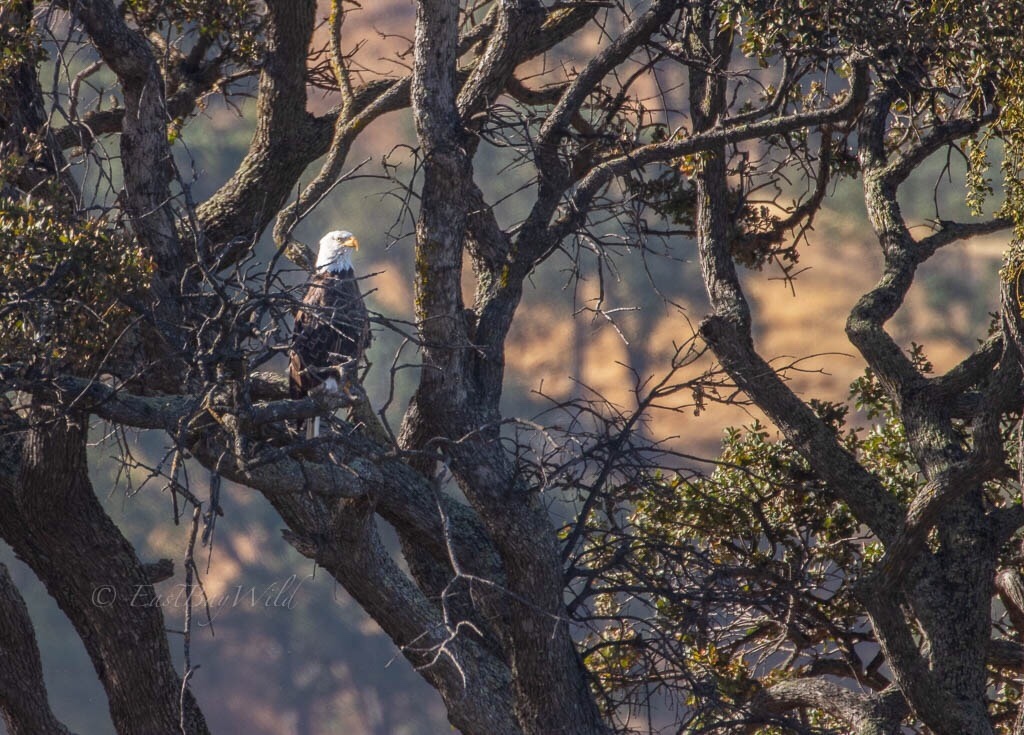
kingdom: Animalia
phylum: Chordata
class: Aves
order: Accipitriformes
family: Accipitridae
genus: Haliaeetus
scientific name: Haliaeetus leucocephalus
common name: Bald eagle
